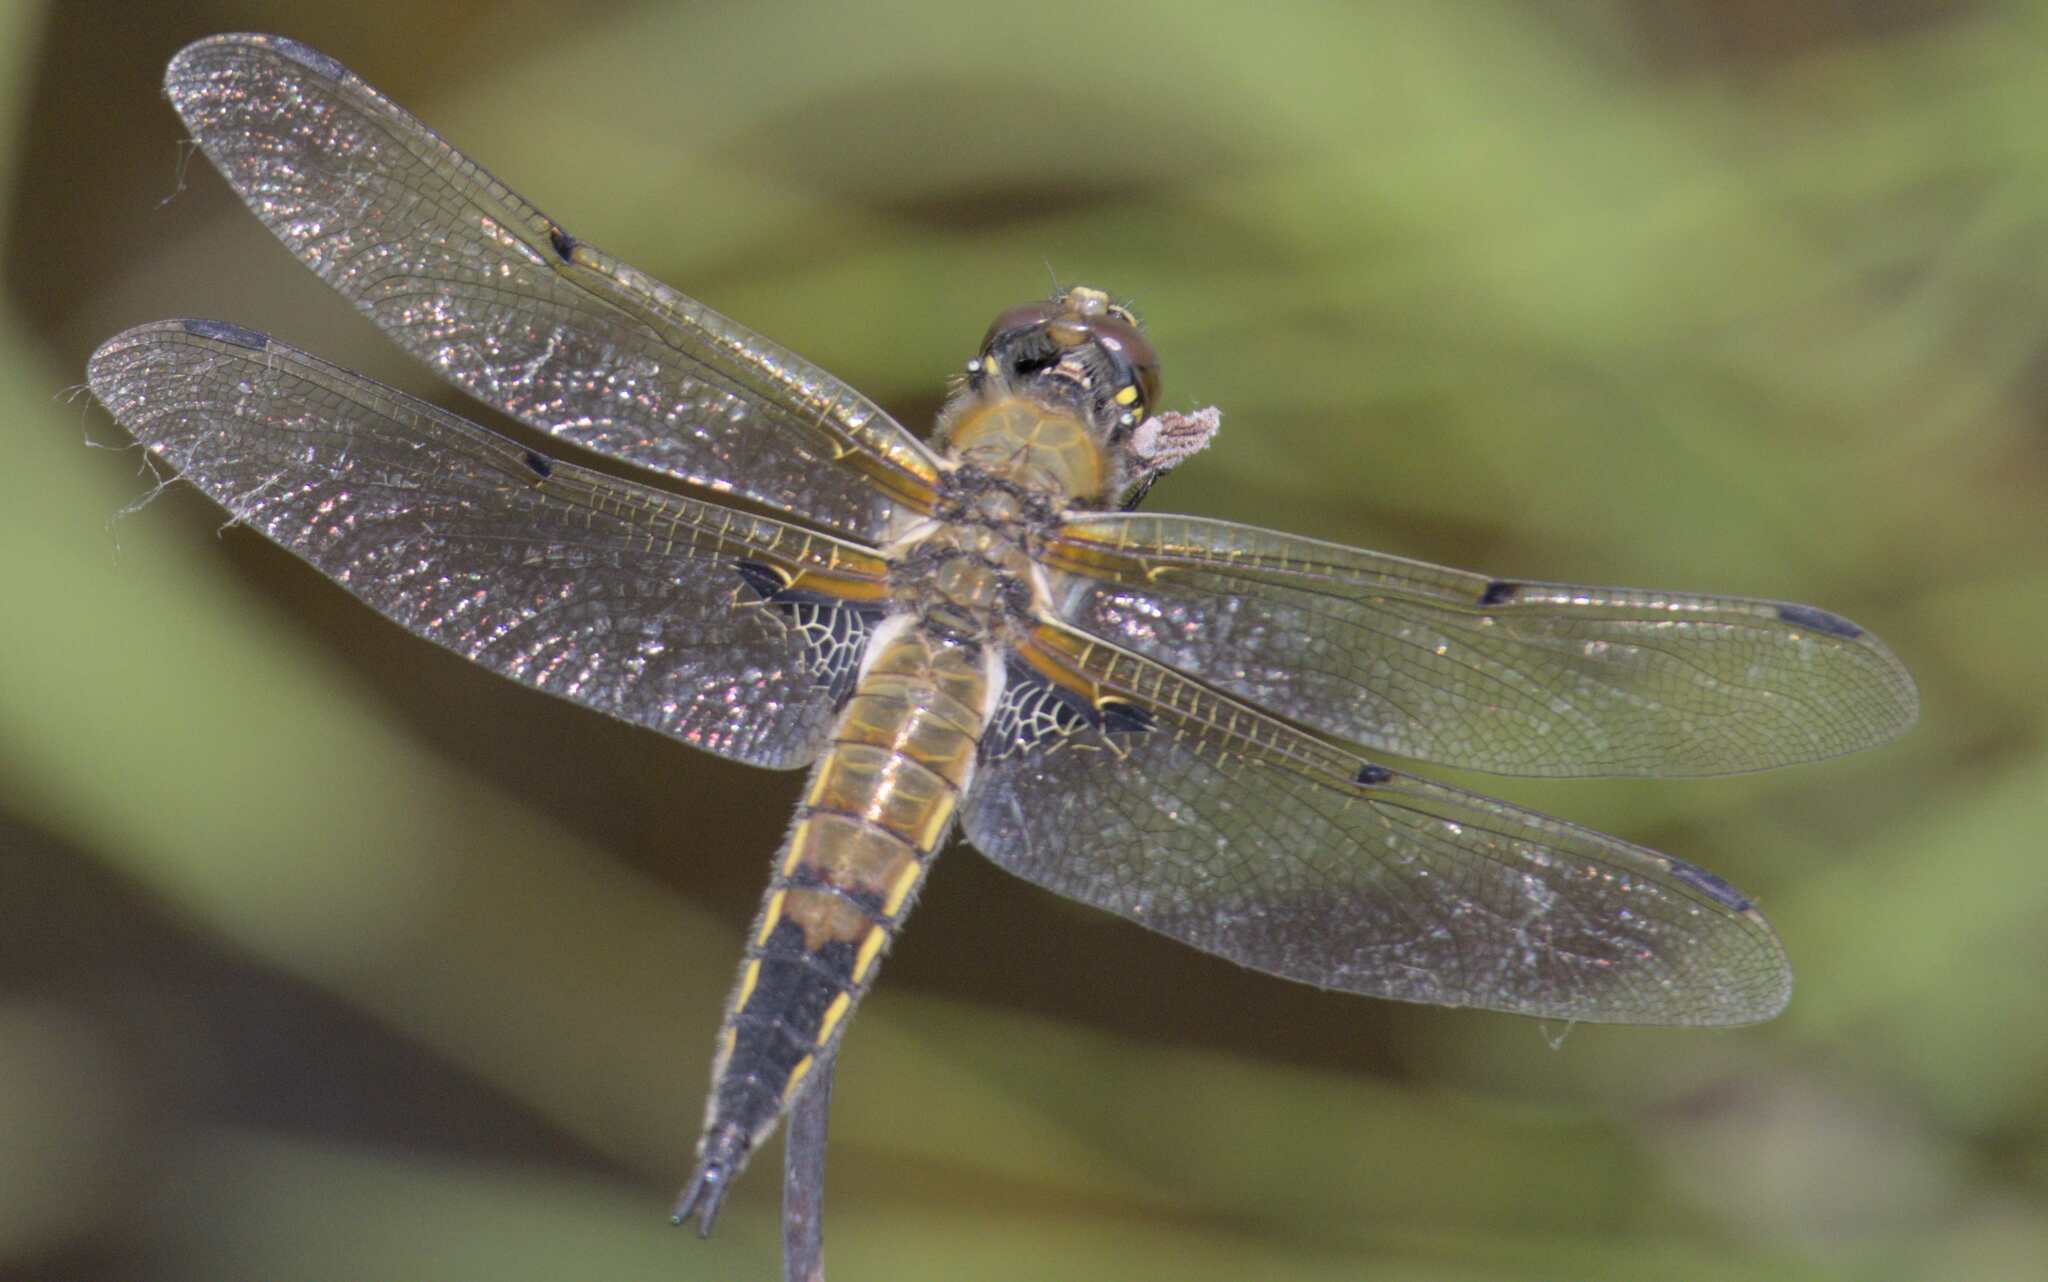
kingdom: Animalia
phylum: Arthropoda
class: Insecta
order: Odonata
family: Libellulidae
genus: Libellula
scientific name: Libellula quadrimaculata
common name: Four-spotted chaser
